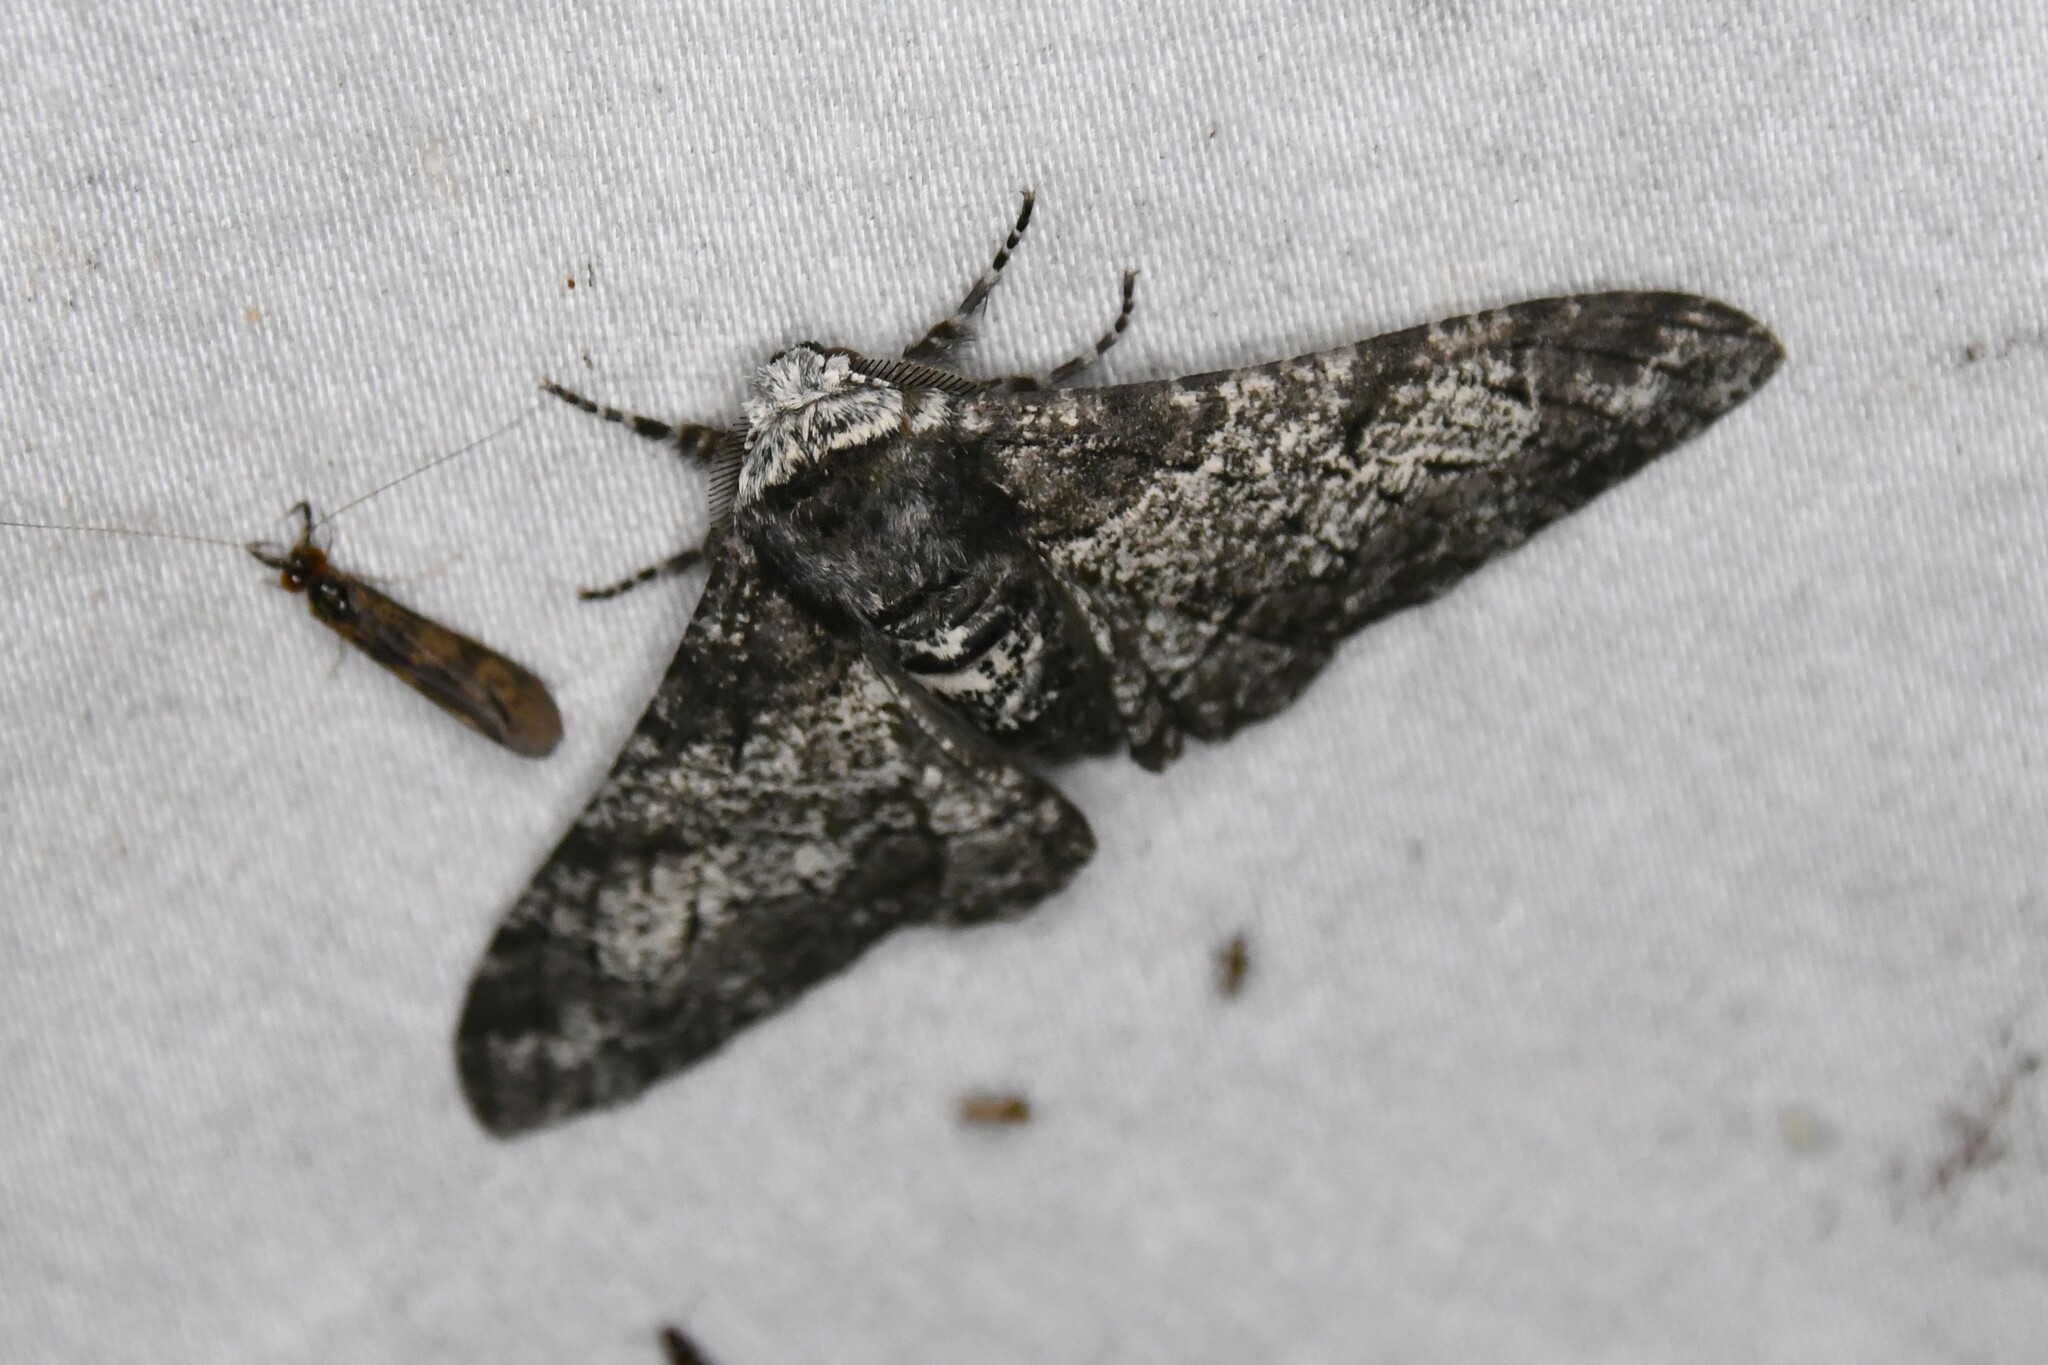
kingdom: Animalia
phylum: Arthropoda
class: Insecta
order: Lepidoptera
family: Geometridae
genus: Biston
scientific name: Biston betularia
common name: Peppered moth
